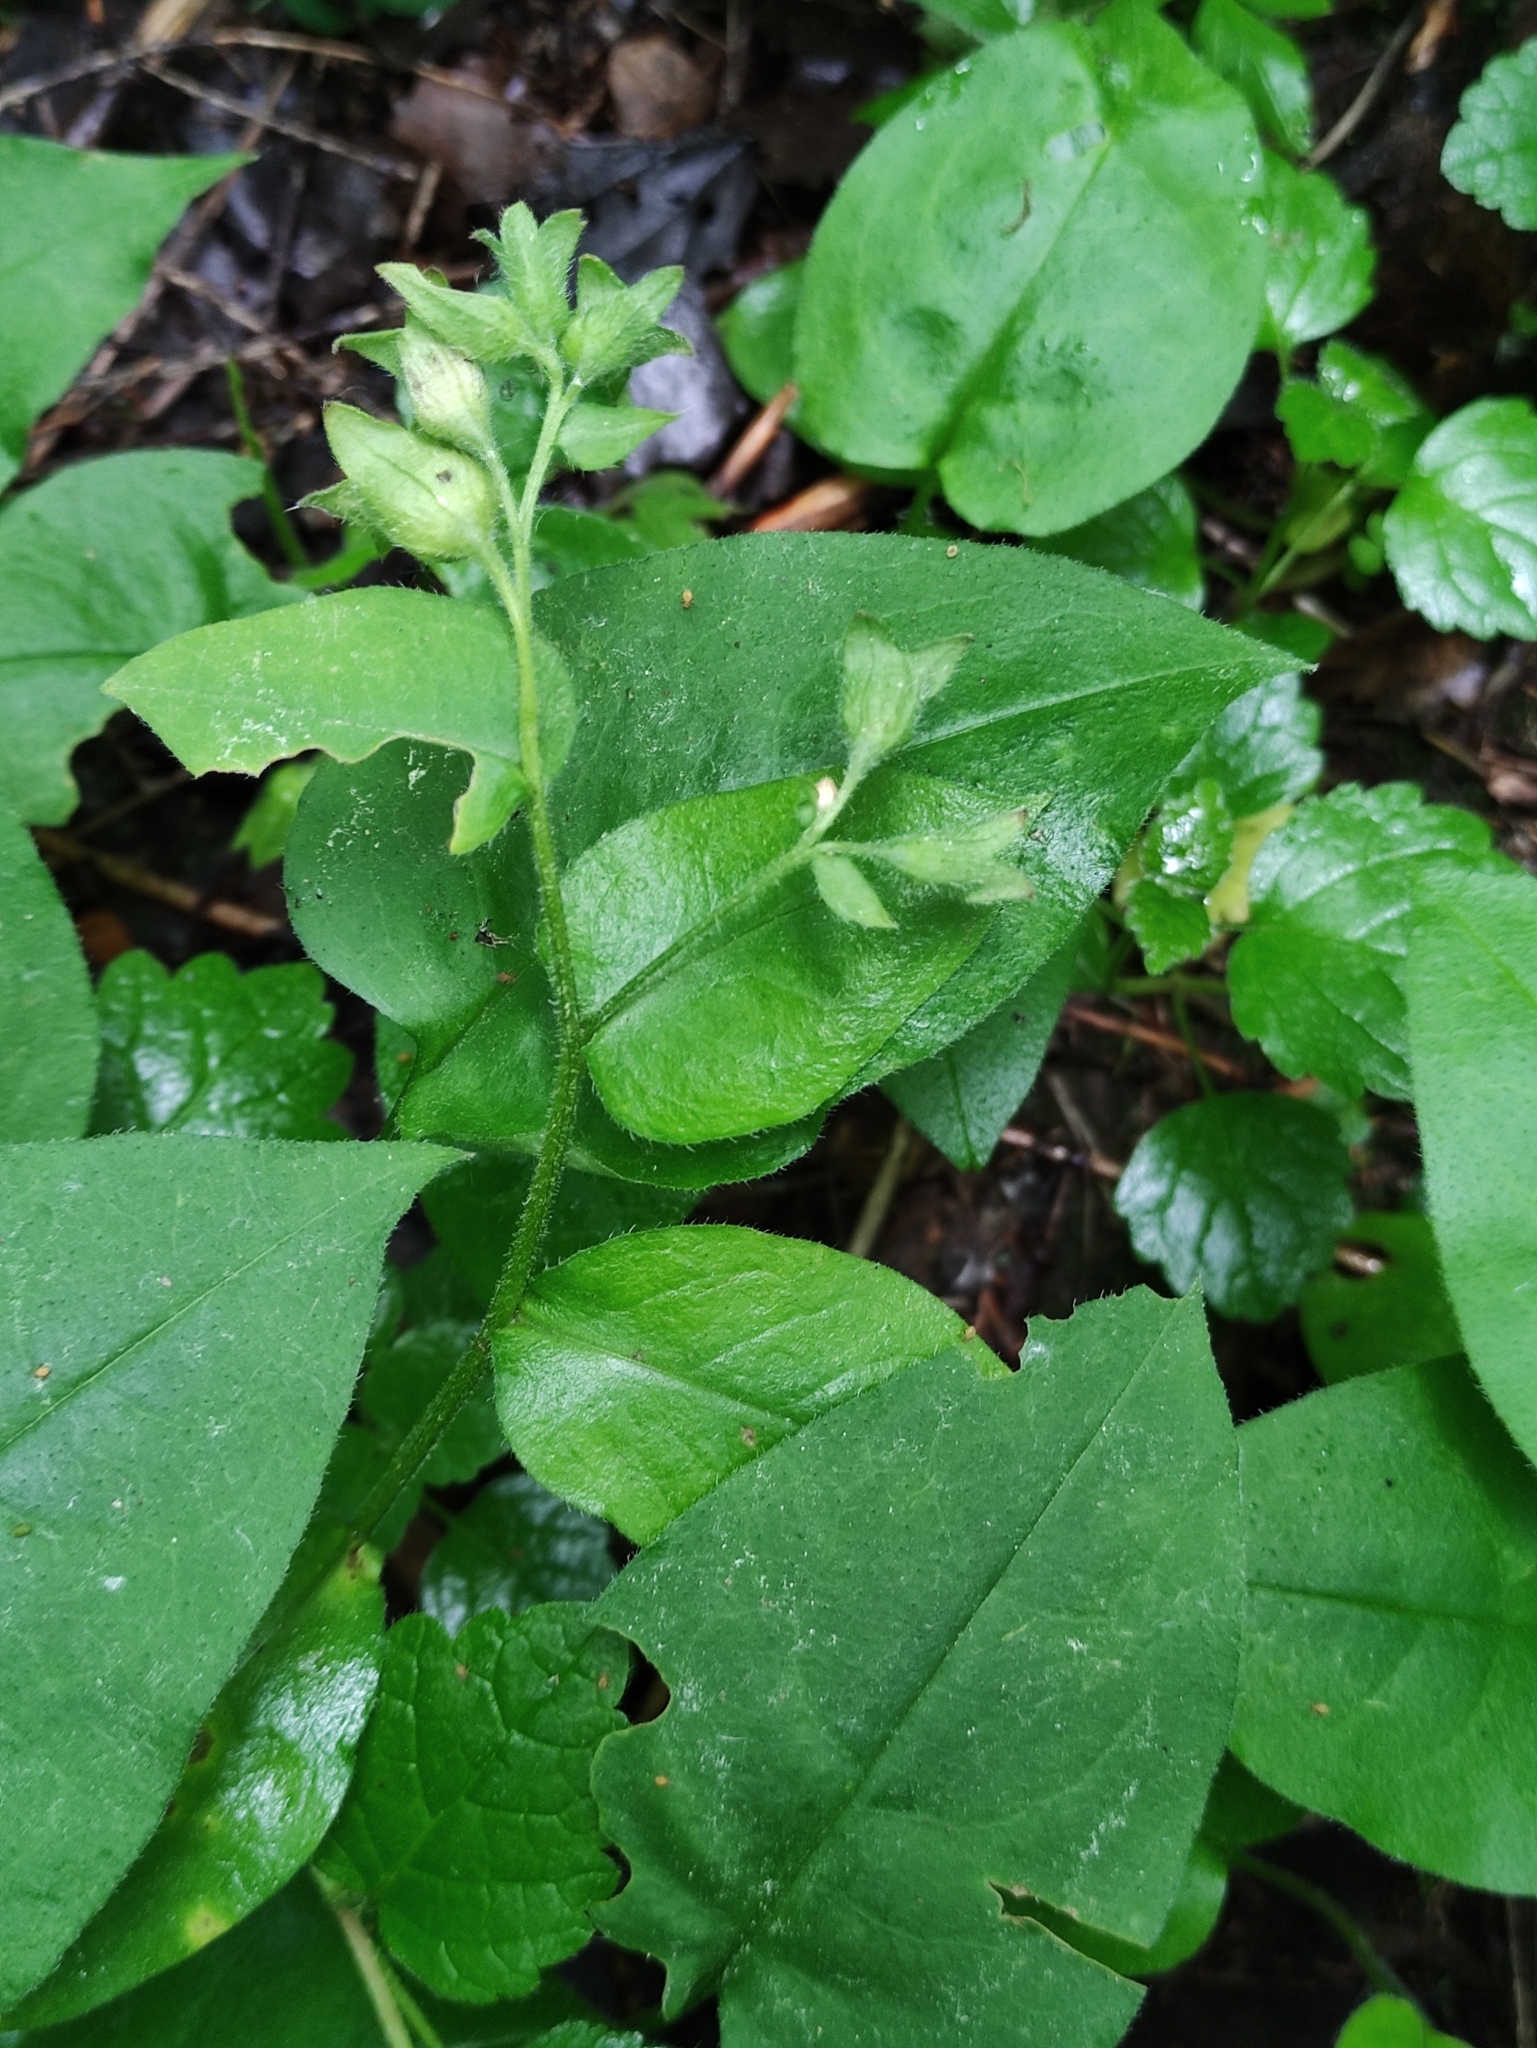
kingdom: Plantae
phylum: Tracheophyta
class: Magnoliopsida
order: Boraginales
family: Boraginaceae
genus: Pulmonaria
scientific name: Pulmonaria obscura
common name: Suffolk lungwort
